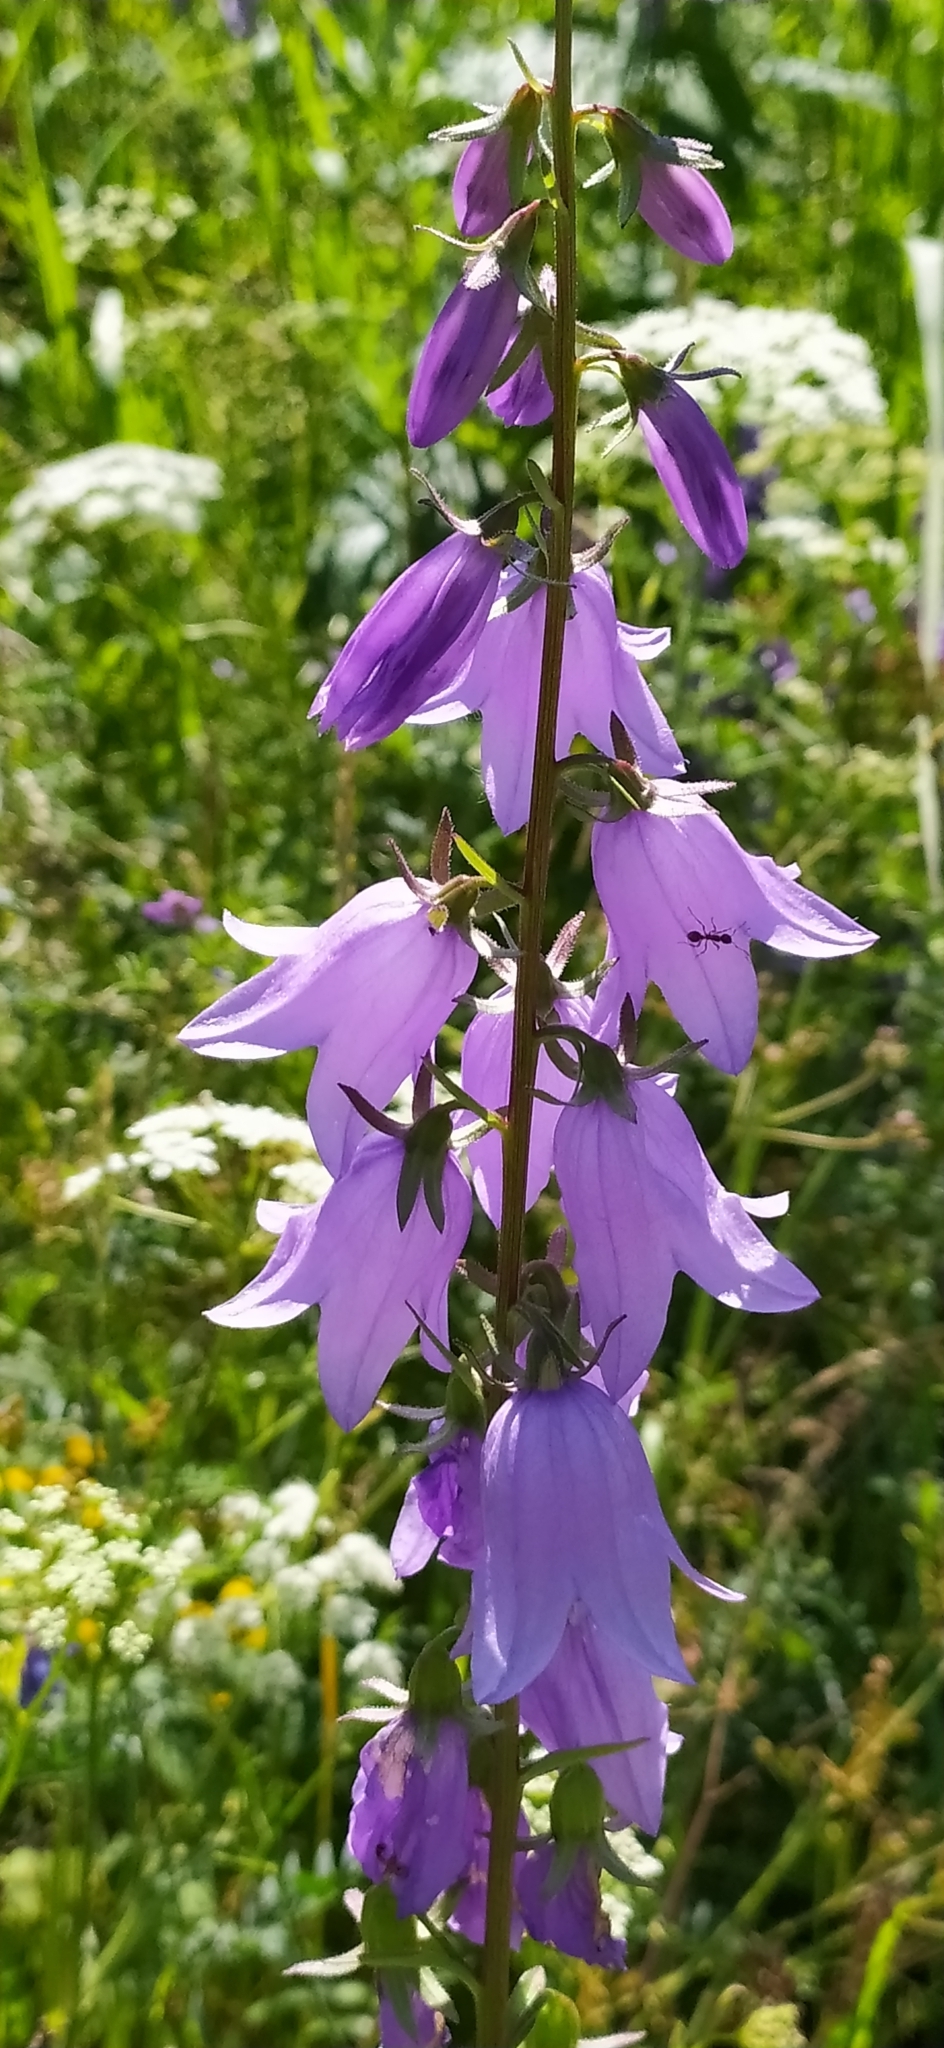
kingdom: Plantae
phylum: Tracheophyta
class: Magnoliopsida
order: Asterales
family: Campanulaceae
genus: Campanula
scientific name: Campanula rapunculoides
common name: Creeping bellflower
